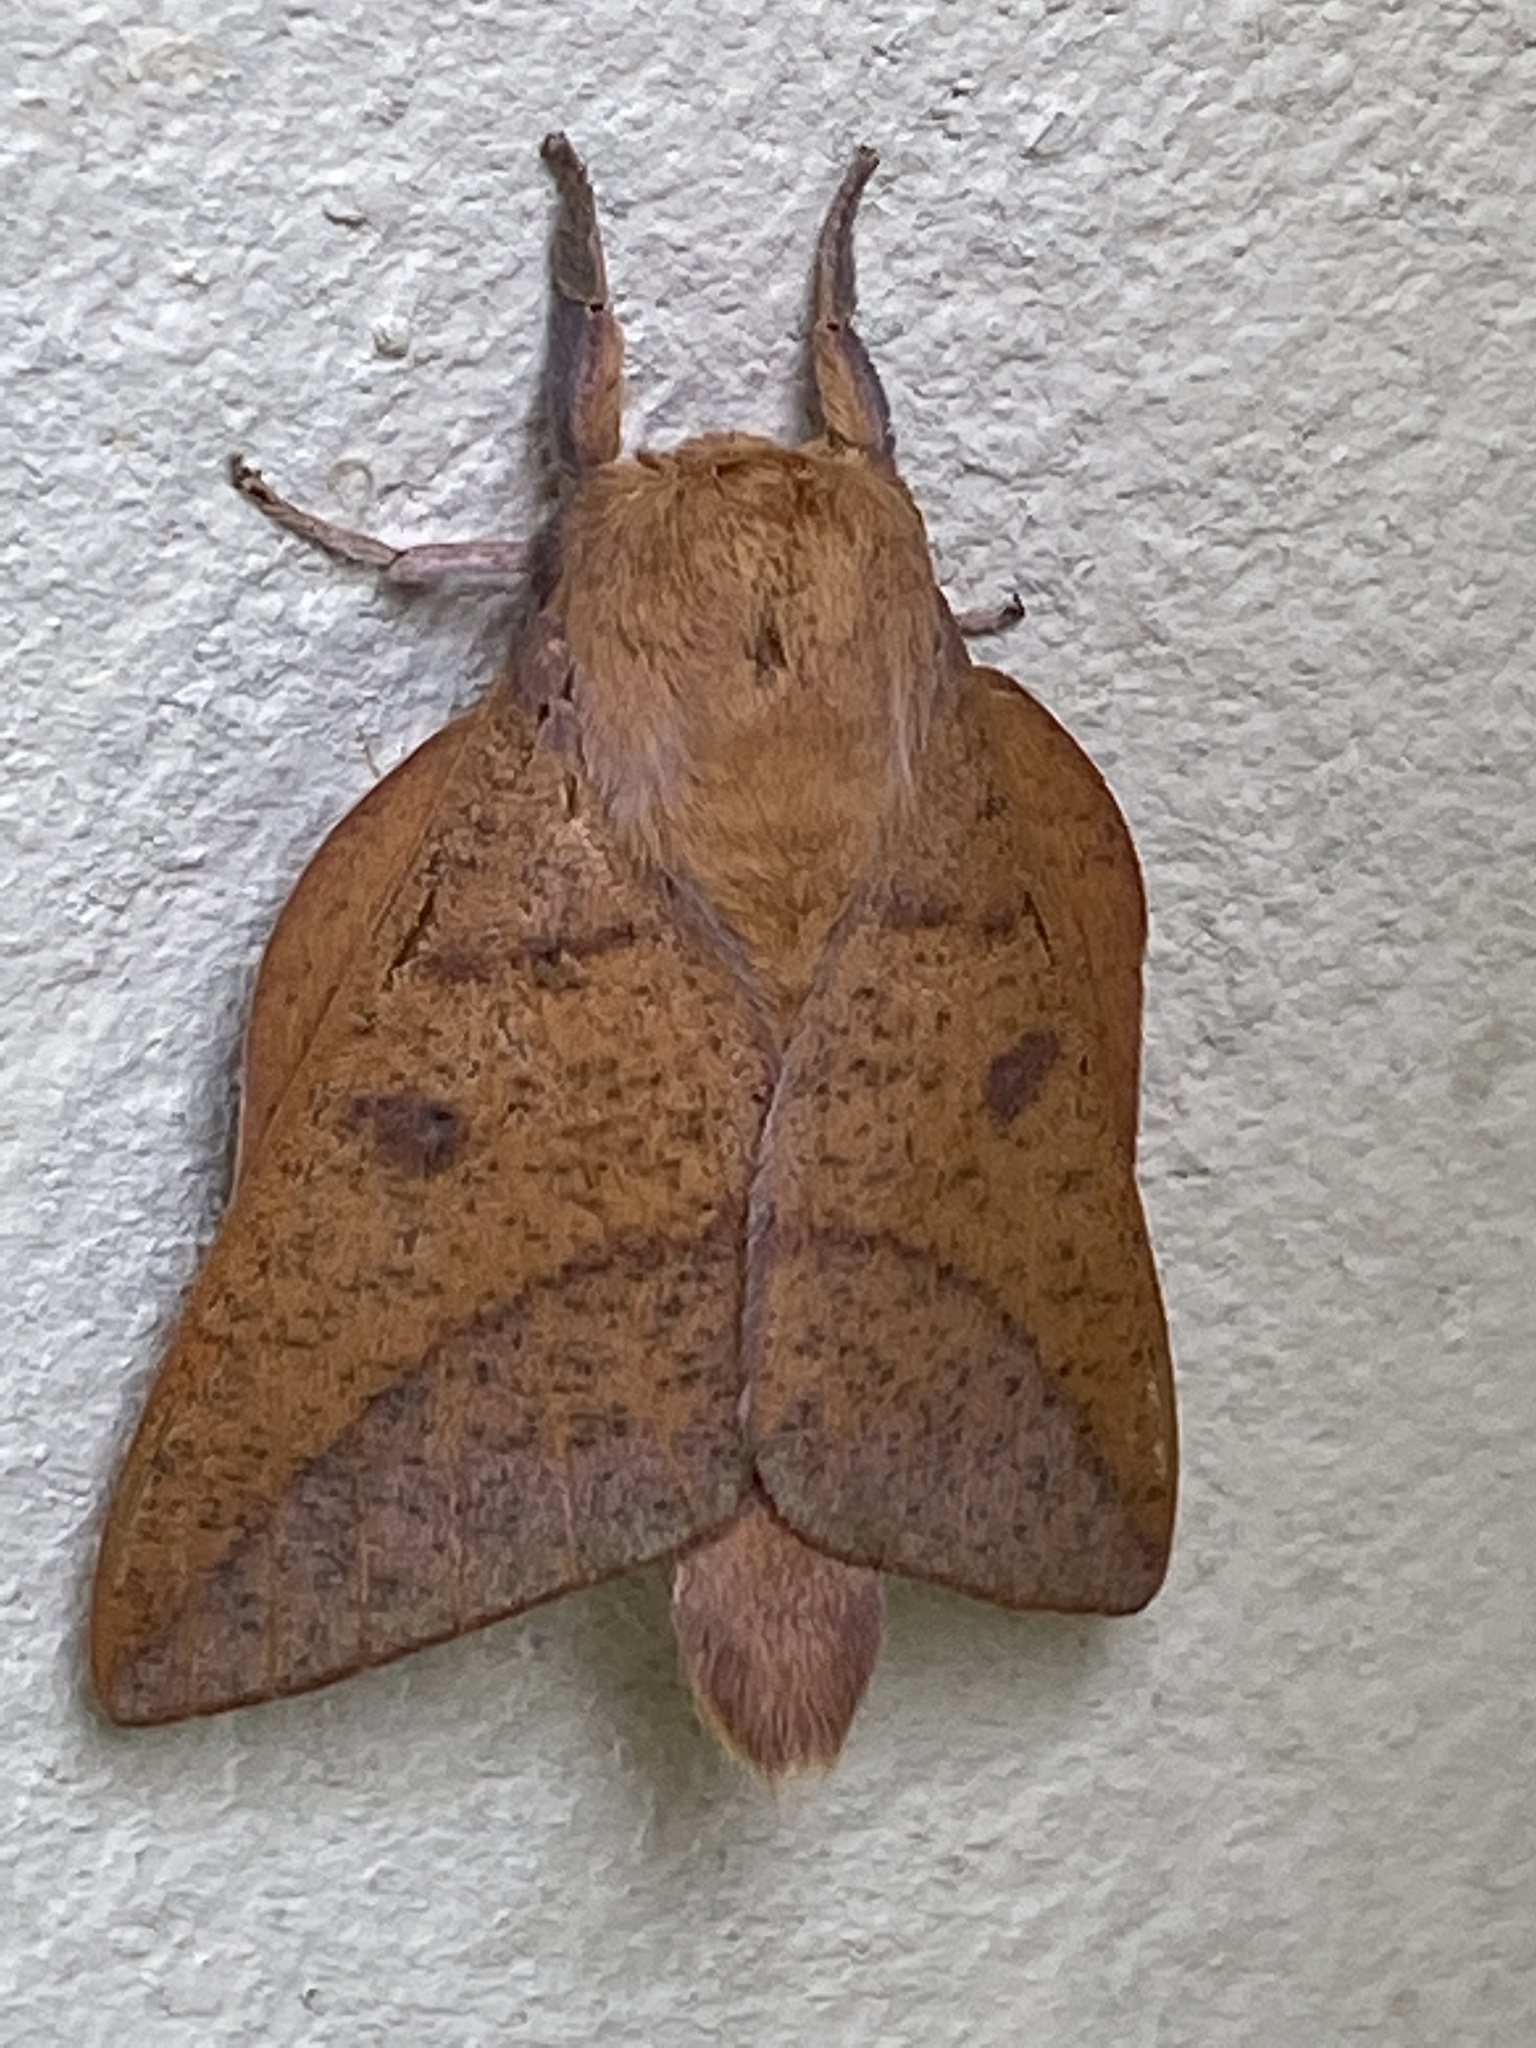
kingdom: Animalia
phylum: Arthropoda
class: Insecta
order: Lepidoptera
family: Saturniidae
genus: Adeloneivaia
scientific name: Adeloneivaia catharina
